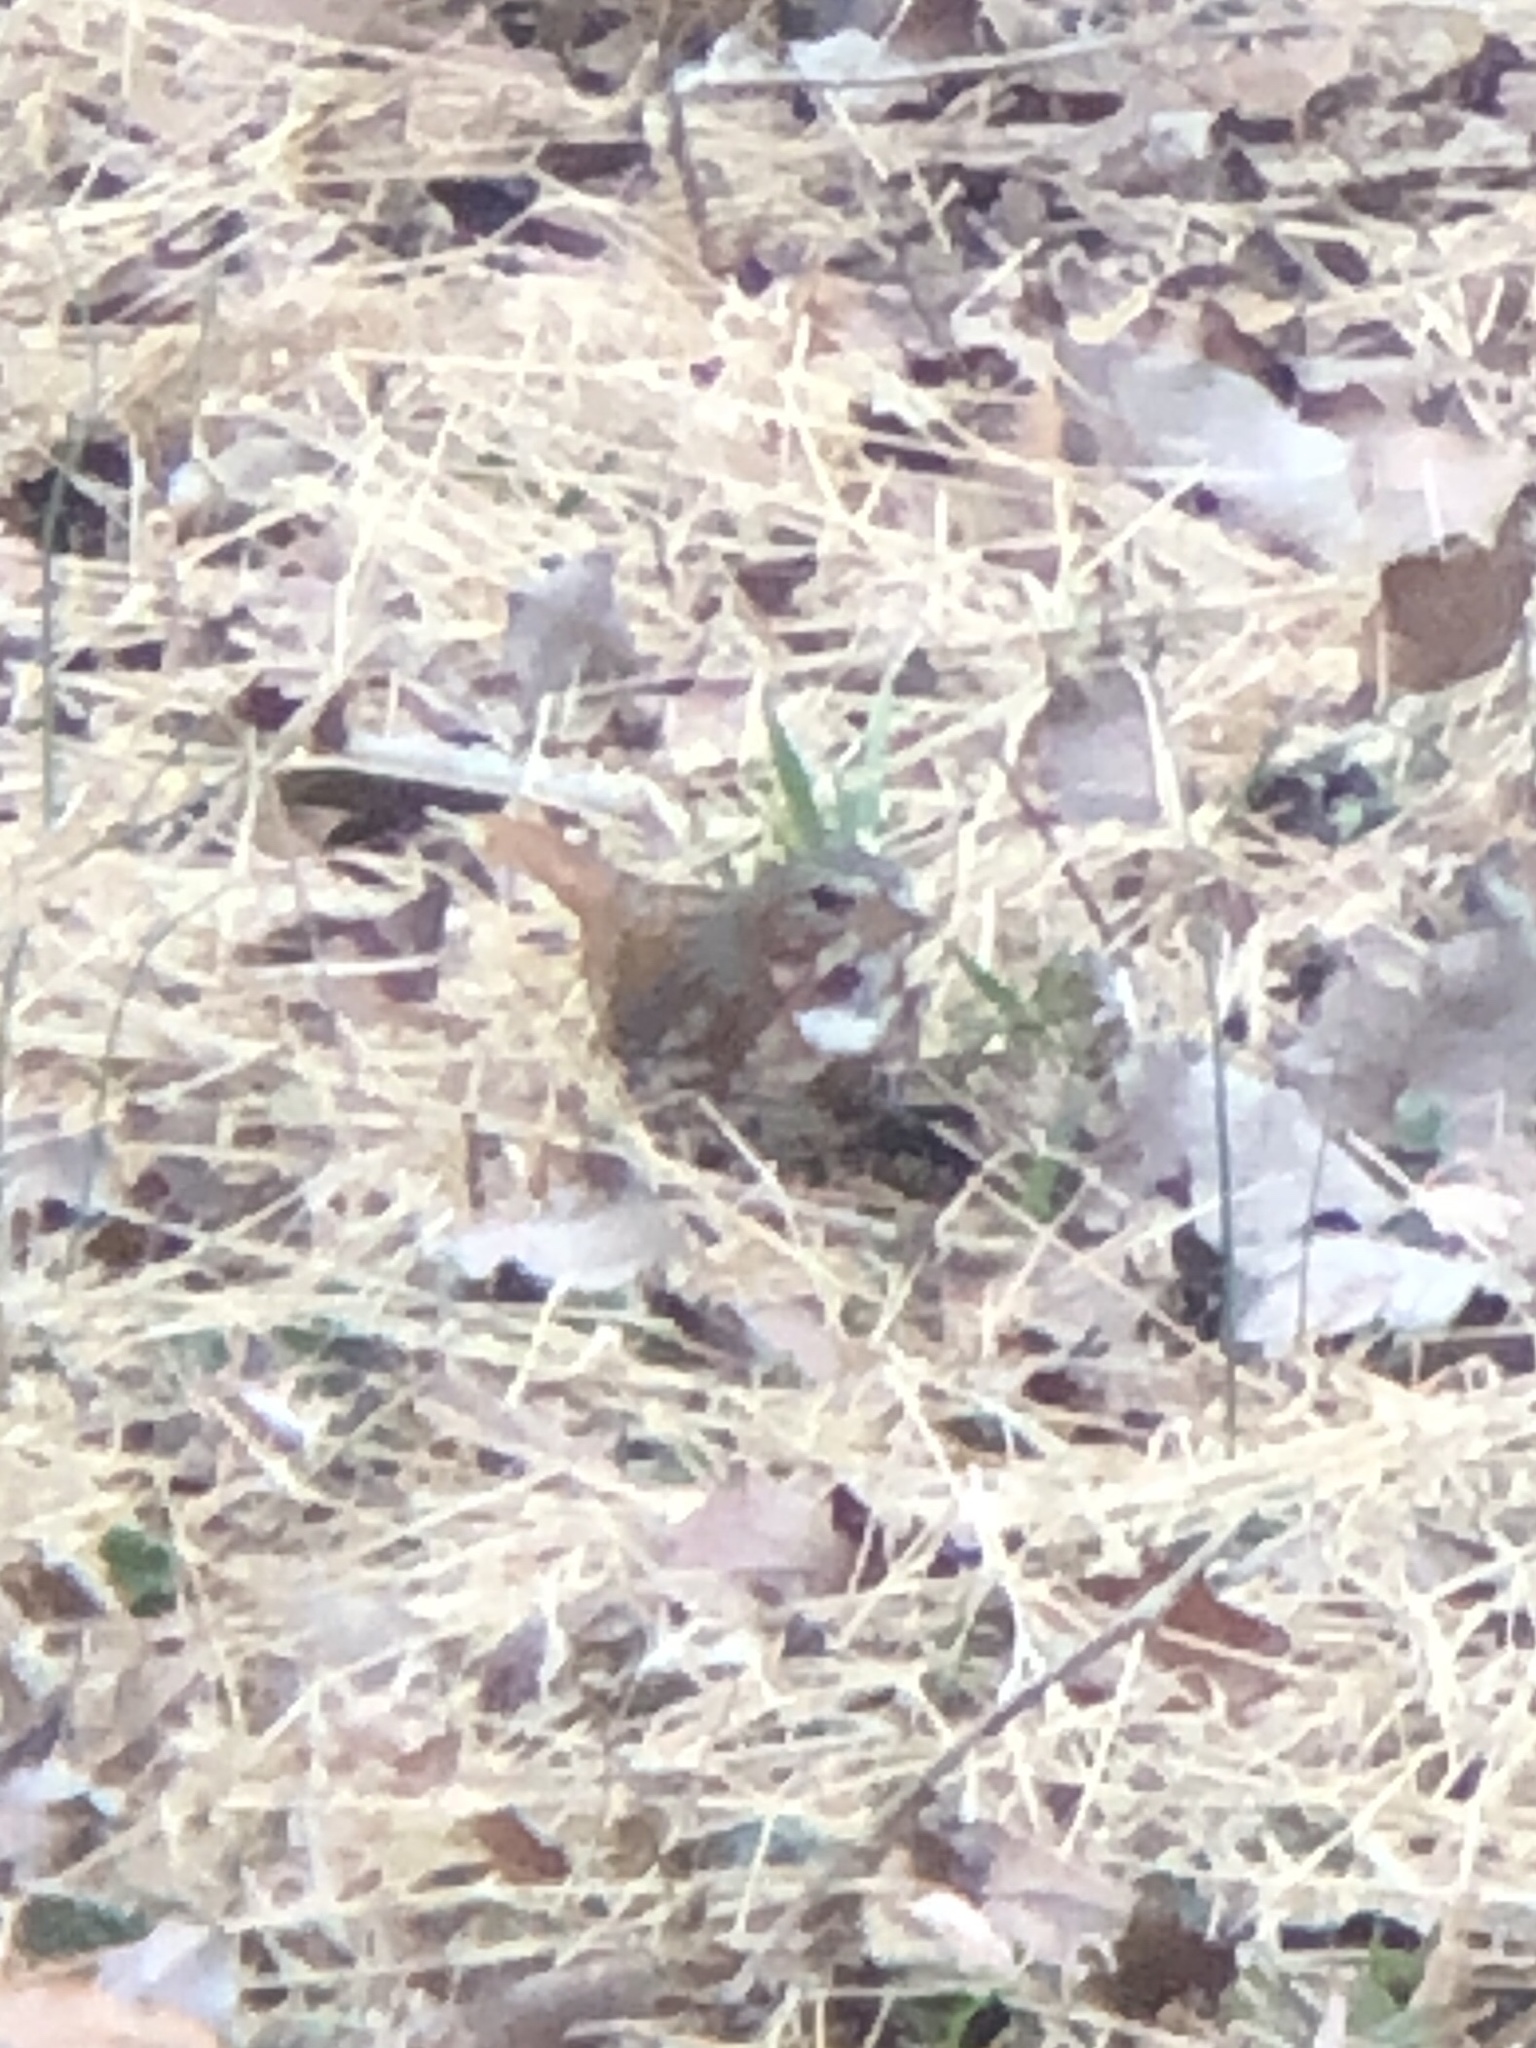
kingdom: Animalia
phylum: Chordata
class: Aves
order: Passeriformes
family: Passerellidae
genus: Passerella
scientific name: Passerella iliaca
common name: Fox sparrow
